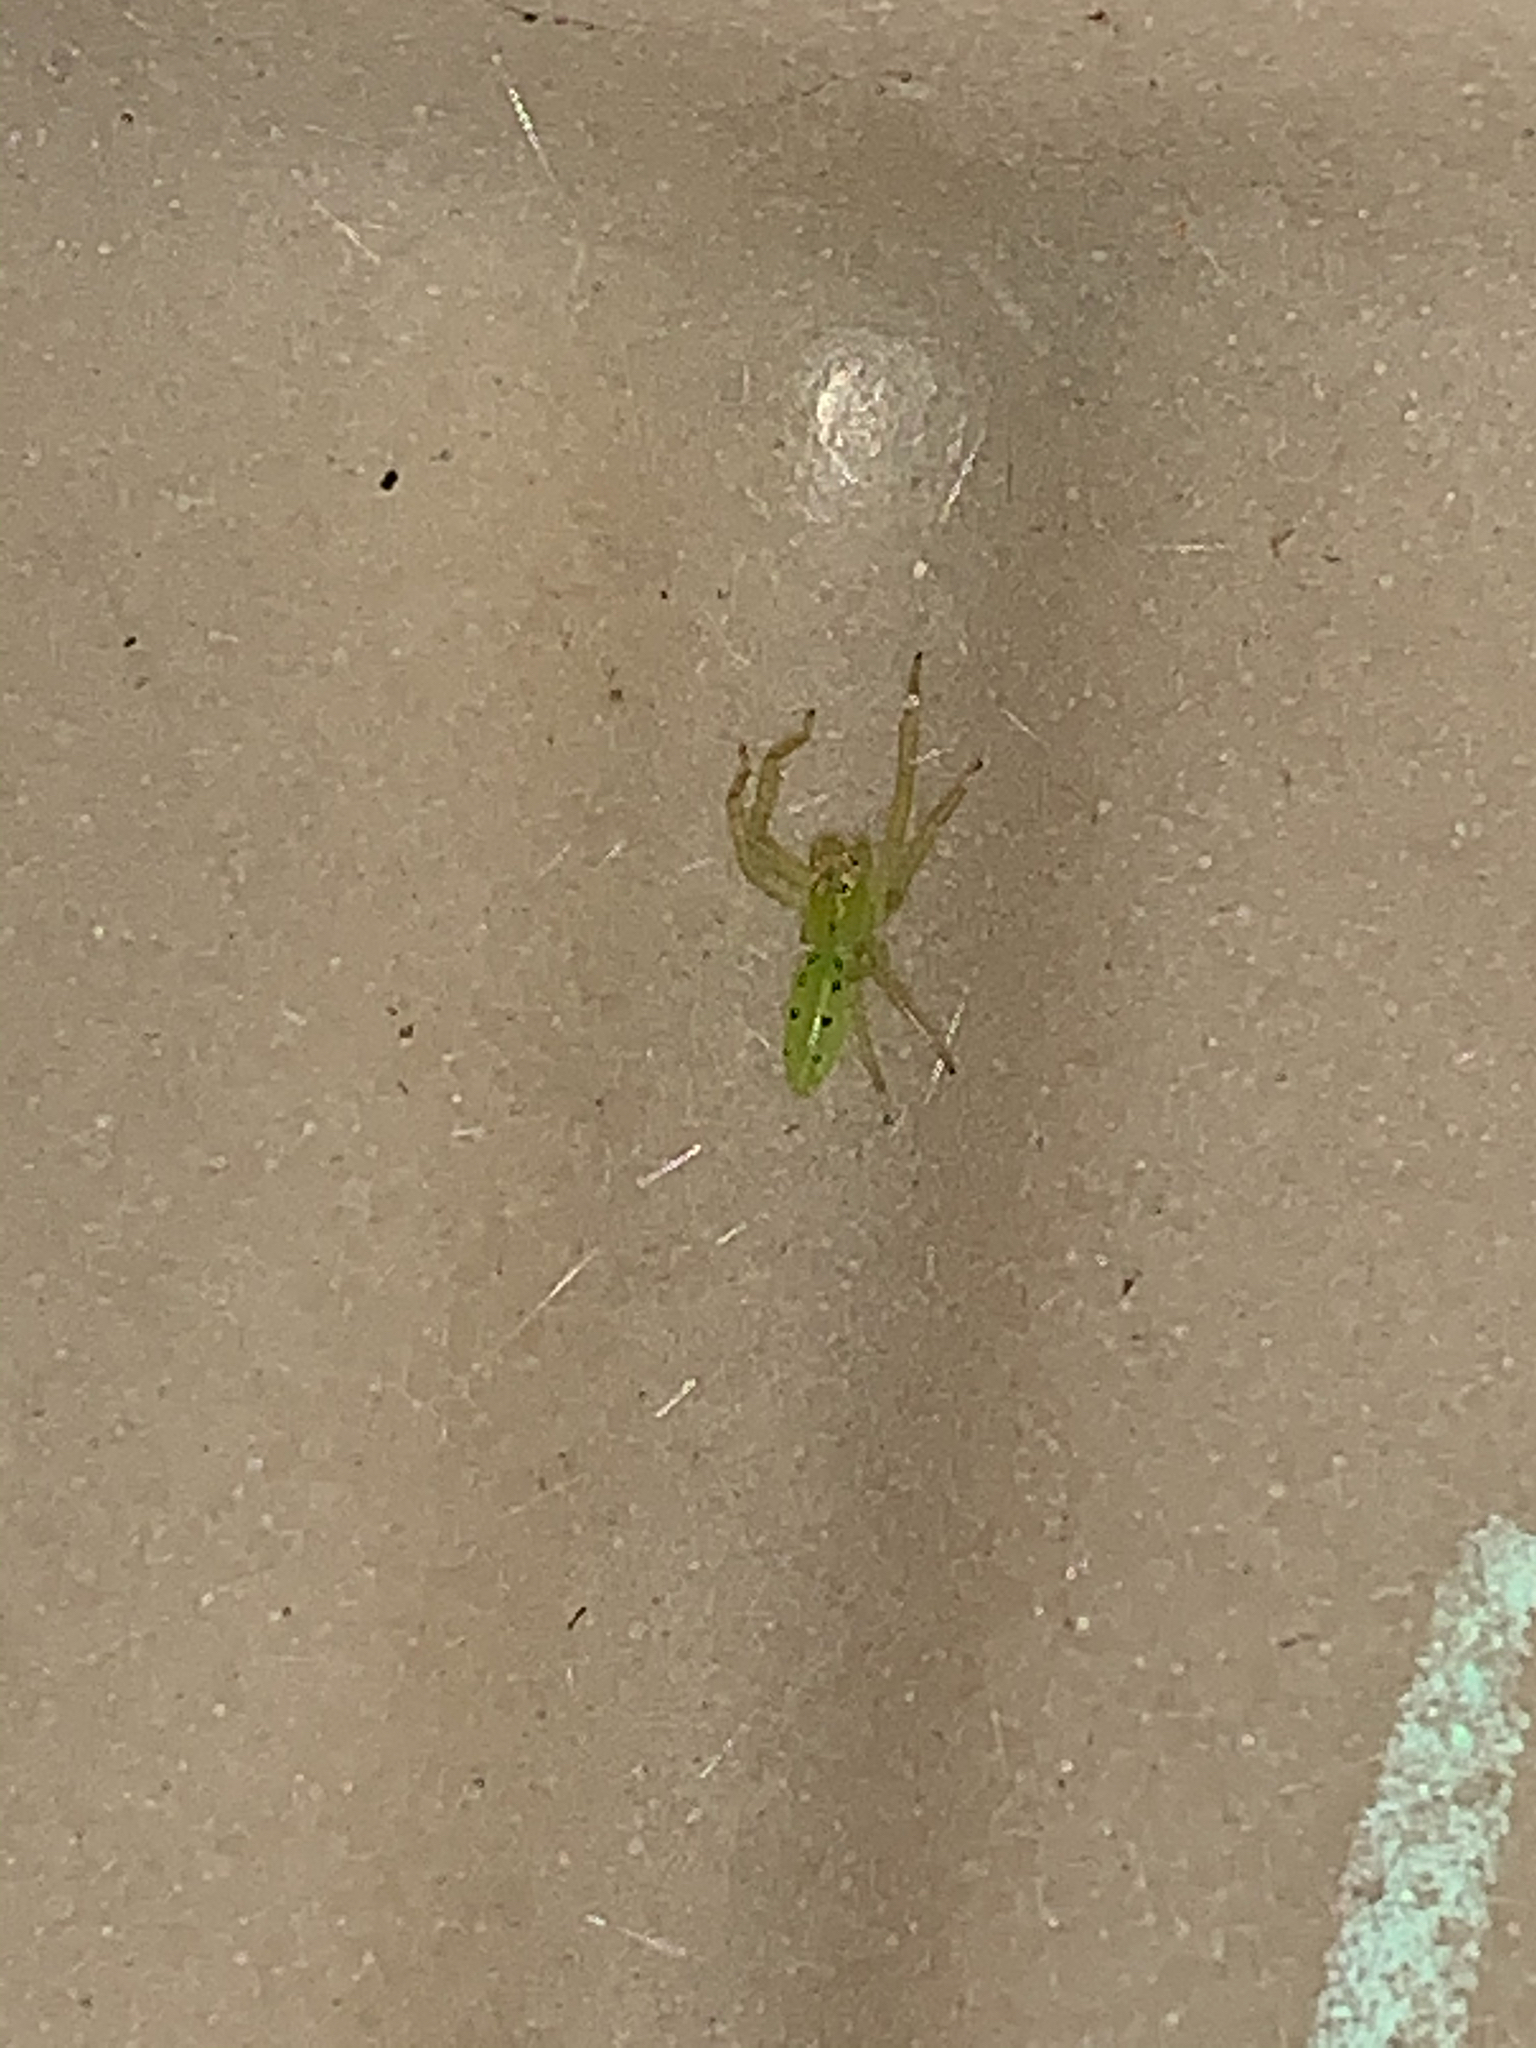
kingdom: Animalia
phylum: Arthropoda
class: Arachnida
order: Araneae
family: Salticidae
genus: Lyssomanes
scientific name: Lyssomanes viridis
